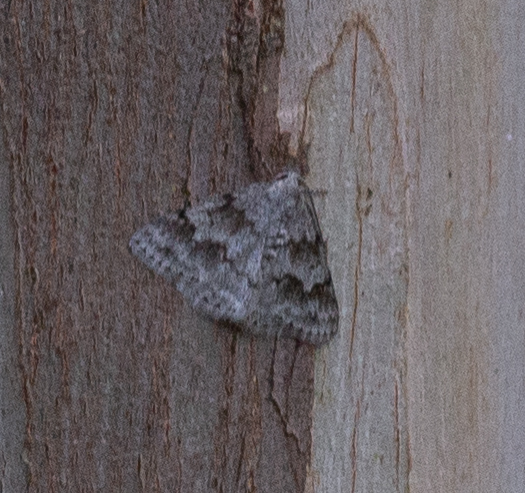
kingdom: Animalia
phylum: Arthropoda
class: Insecta
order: Lepidoptera
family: Geometridae
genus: Pseudoterpna
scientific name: Pseudoterpna coronillaria
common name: Jersey emerald
